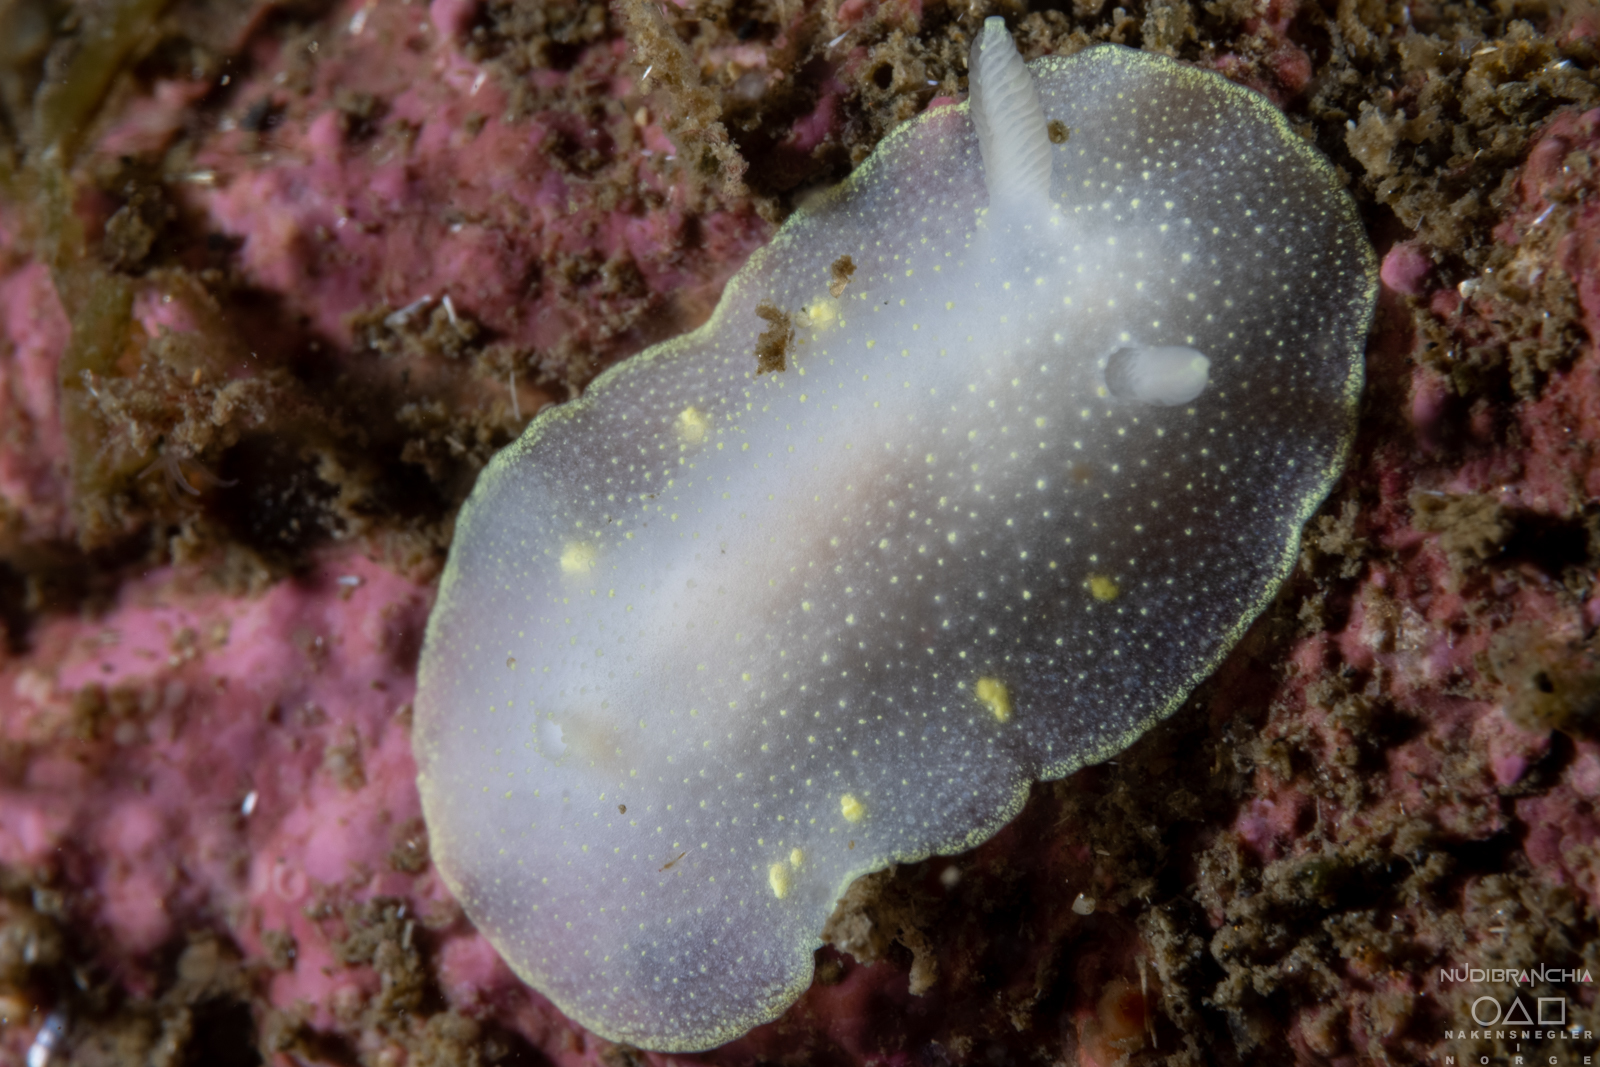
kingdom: Animalia
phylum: Mollusca
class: Gastropoda
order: Nudibranchia
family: Cadlinidae
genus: Cadlina
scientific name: Cadlina laevis
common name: White atlantic cadlina
